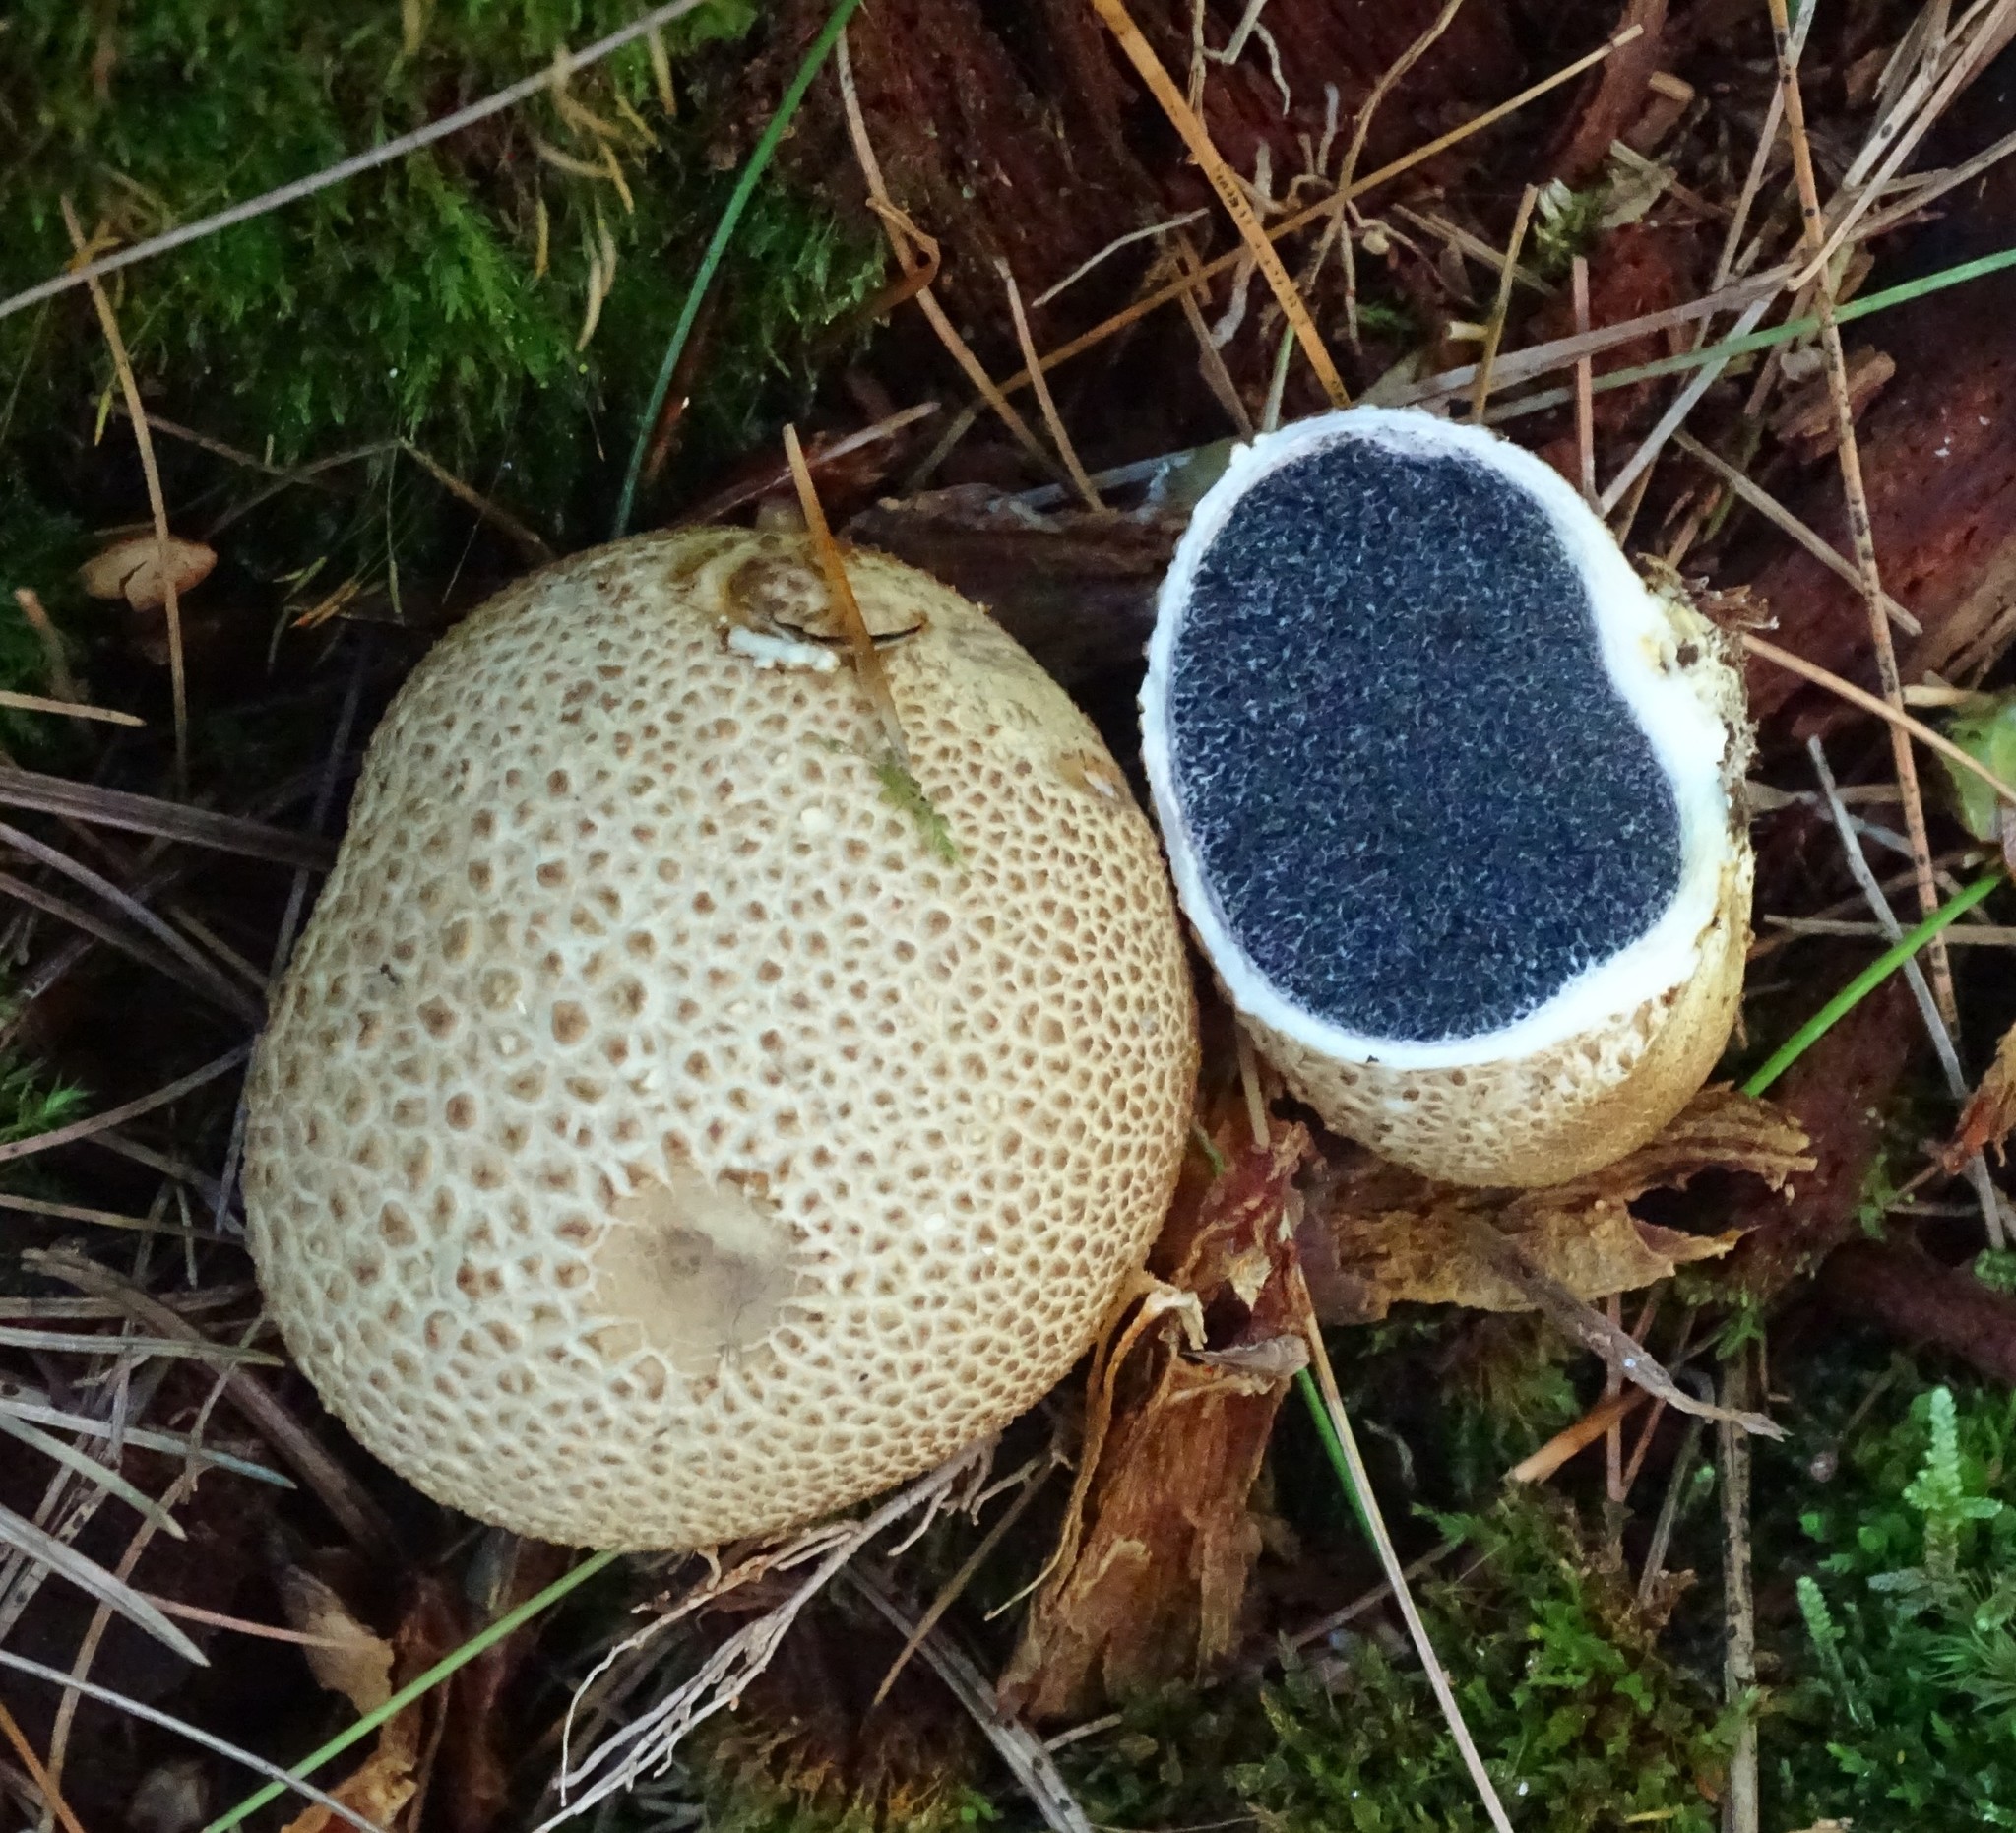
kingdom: Fungi
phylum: Basidiomycota
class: Agaricomycetes
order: Boletales
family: Sclerodermataceae
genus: Scleroderma
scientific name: Scleroderma citrinum
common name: Common earthball
